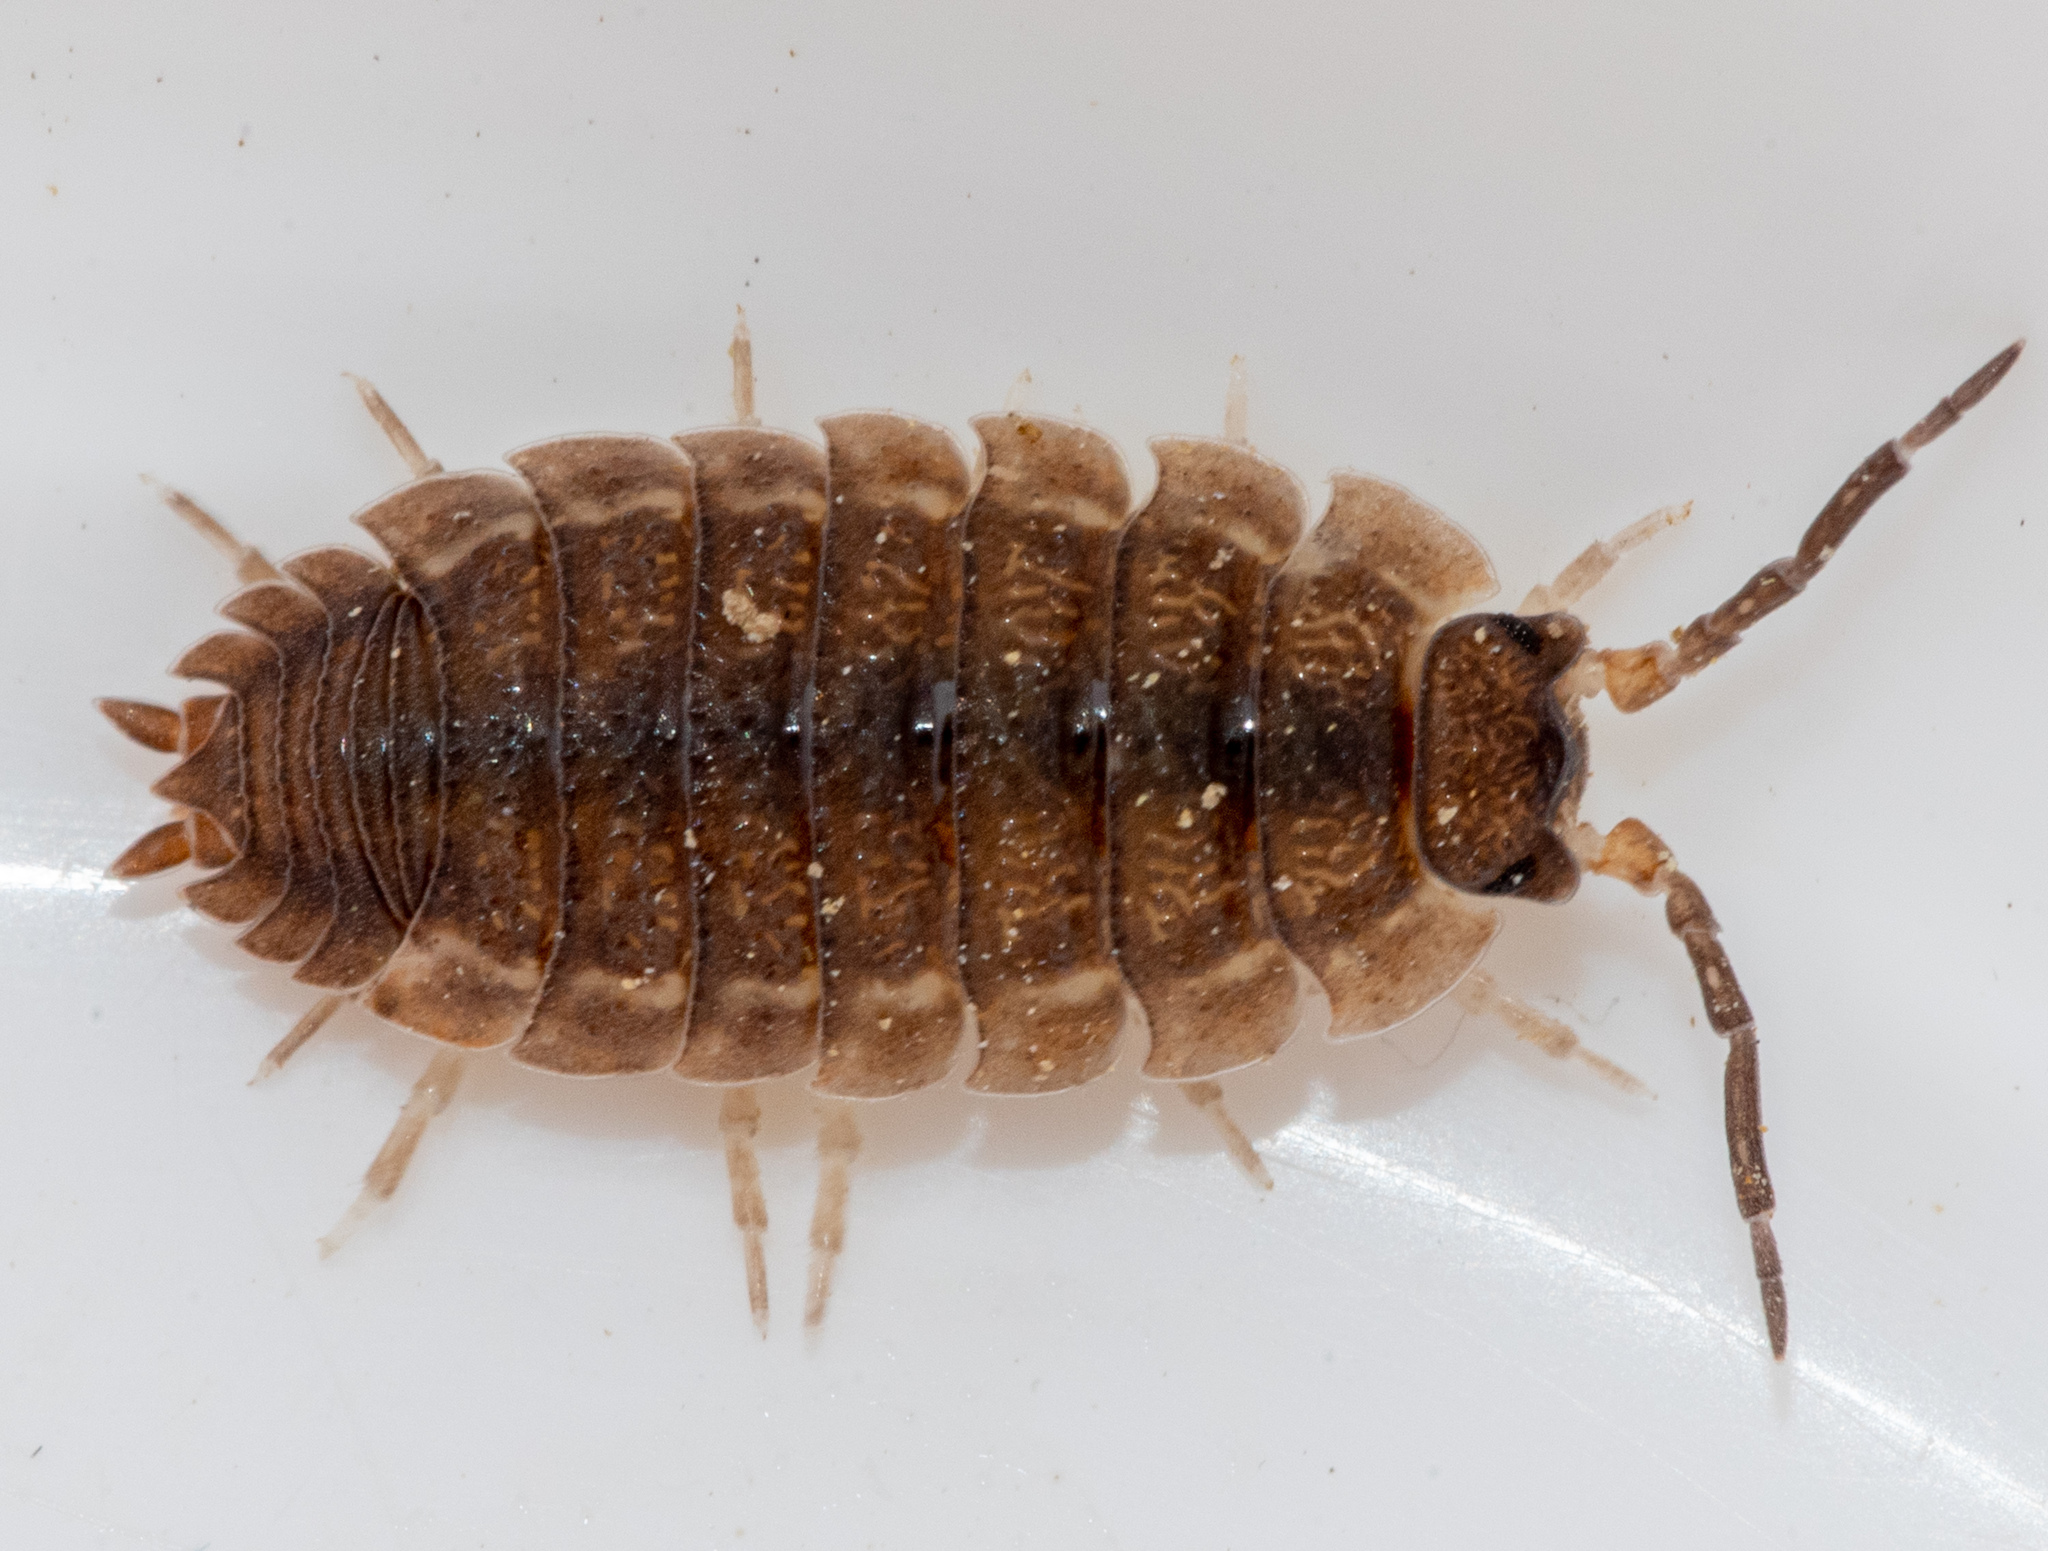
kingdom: Animalia
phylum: Arthropoda
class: Malacostraca
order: Isopoda
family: Porcellionidae
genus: Porcellio
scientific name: Porcellio scaber
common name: Common rough woodlouse
